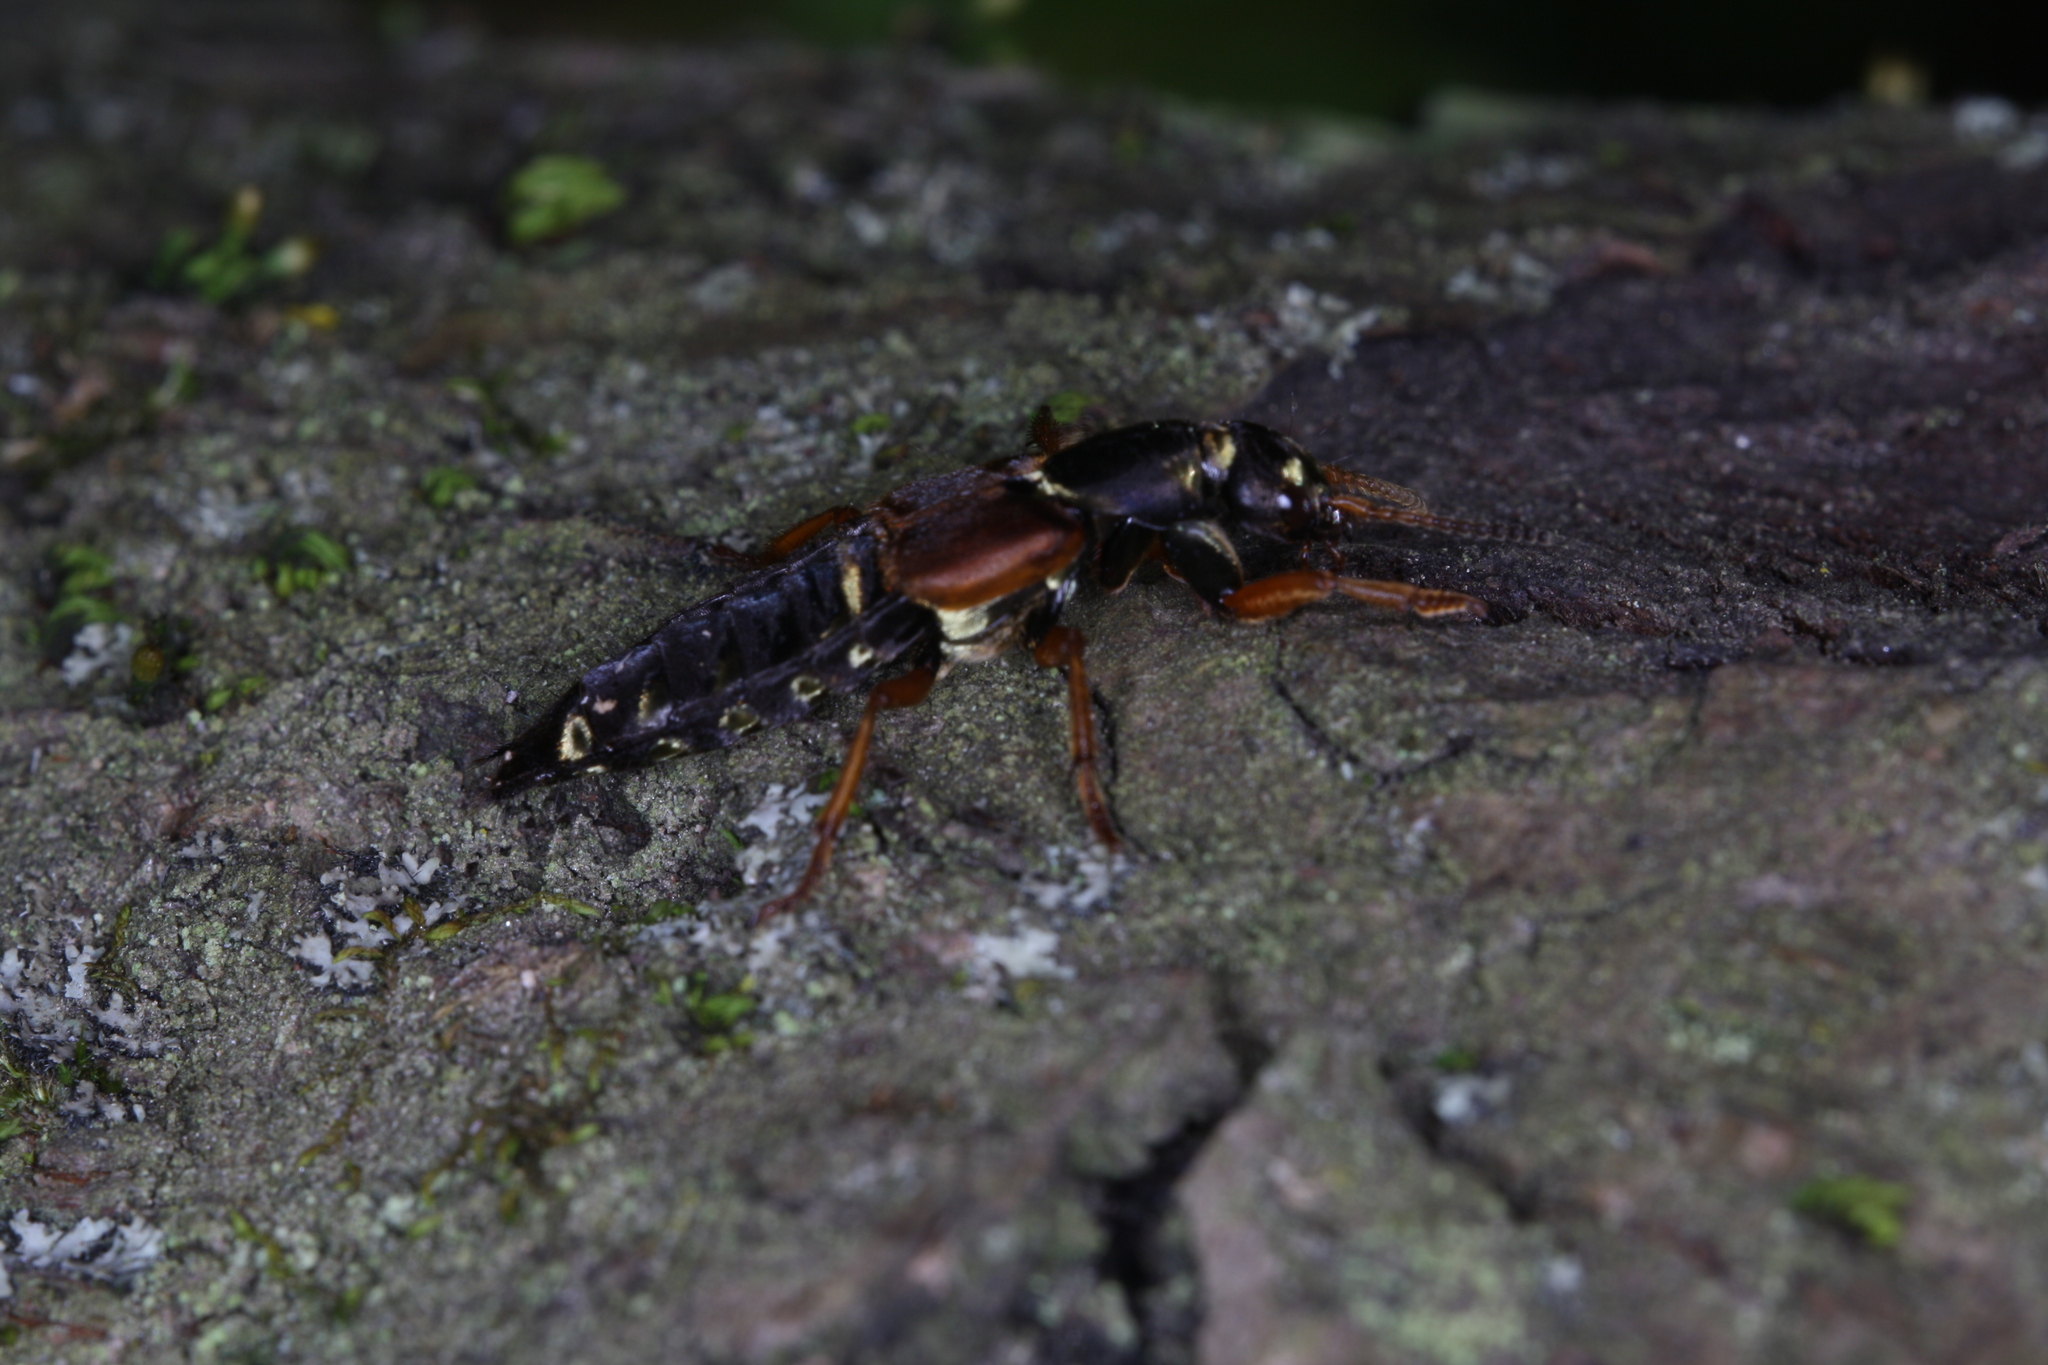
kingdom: Animalia
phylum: Arthropoda
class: Insecta
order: Coleoptera
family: Staphylinidae
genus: Staphylinus
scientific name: Staphylinus caesareus
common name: Staph beetle
